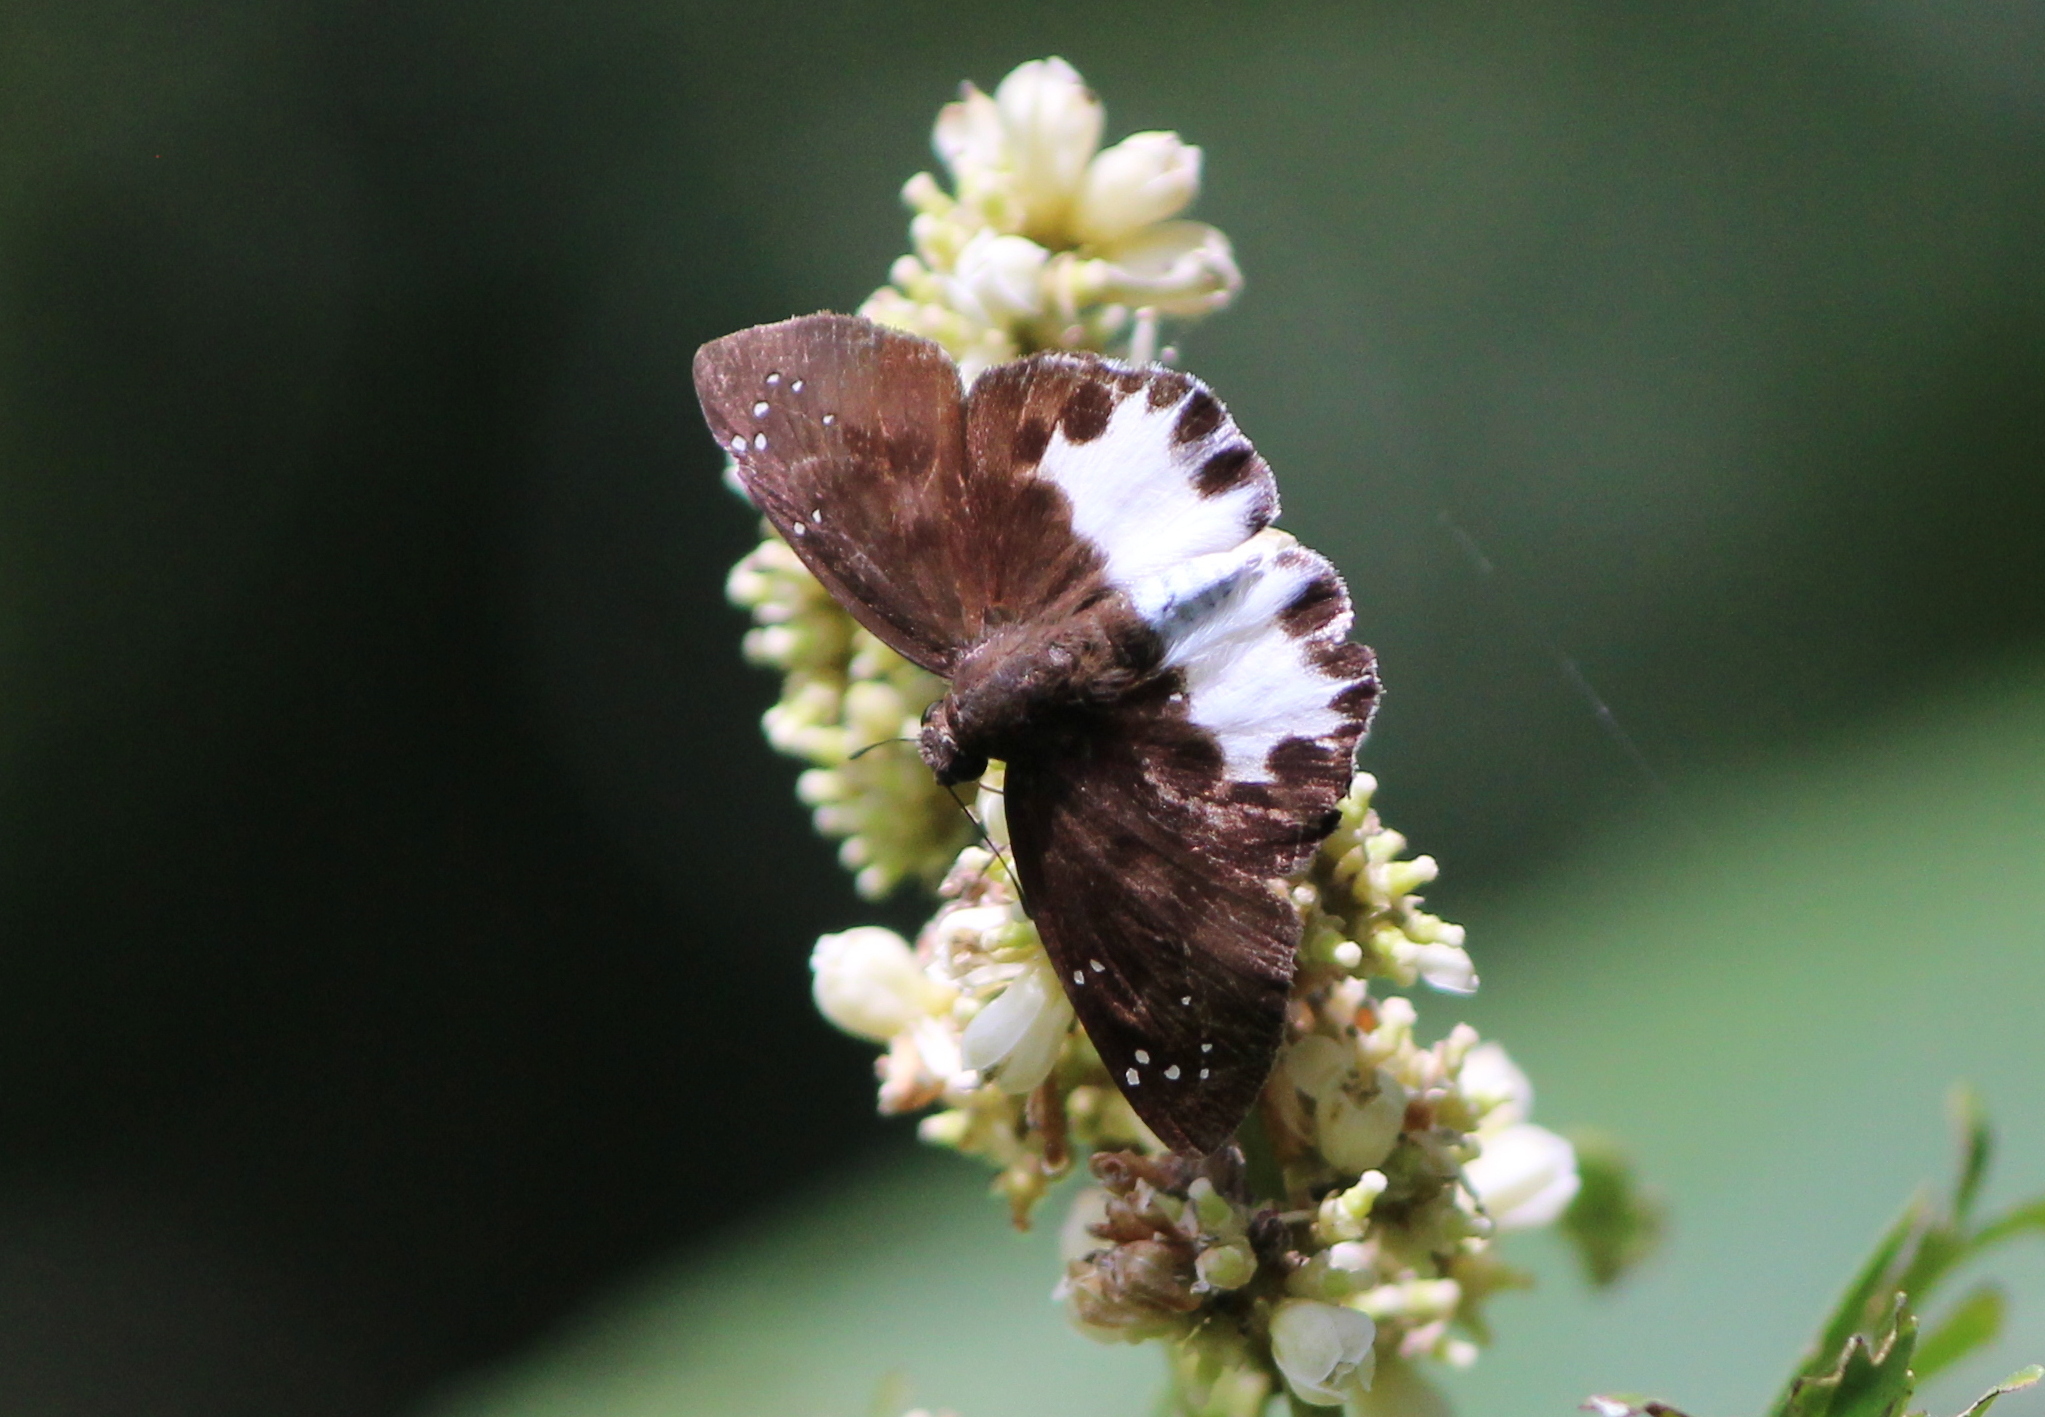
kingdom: Animalia
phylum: Arthropoda
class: Insecta
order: Lepidoptera
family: Hesperiidae
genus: Tagiades
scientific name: Tagiades litigiosa
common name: Water snow flat
